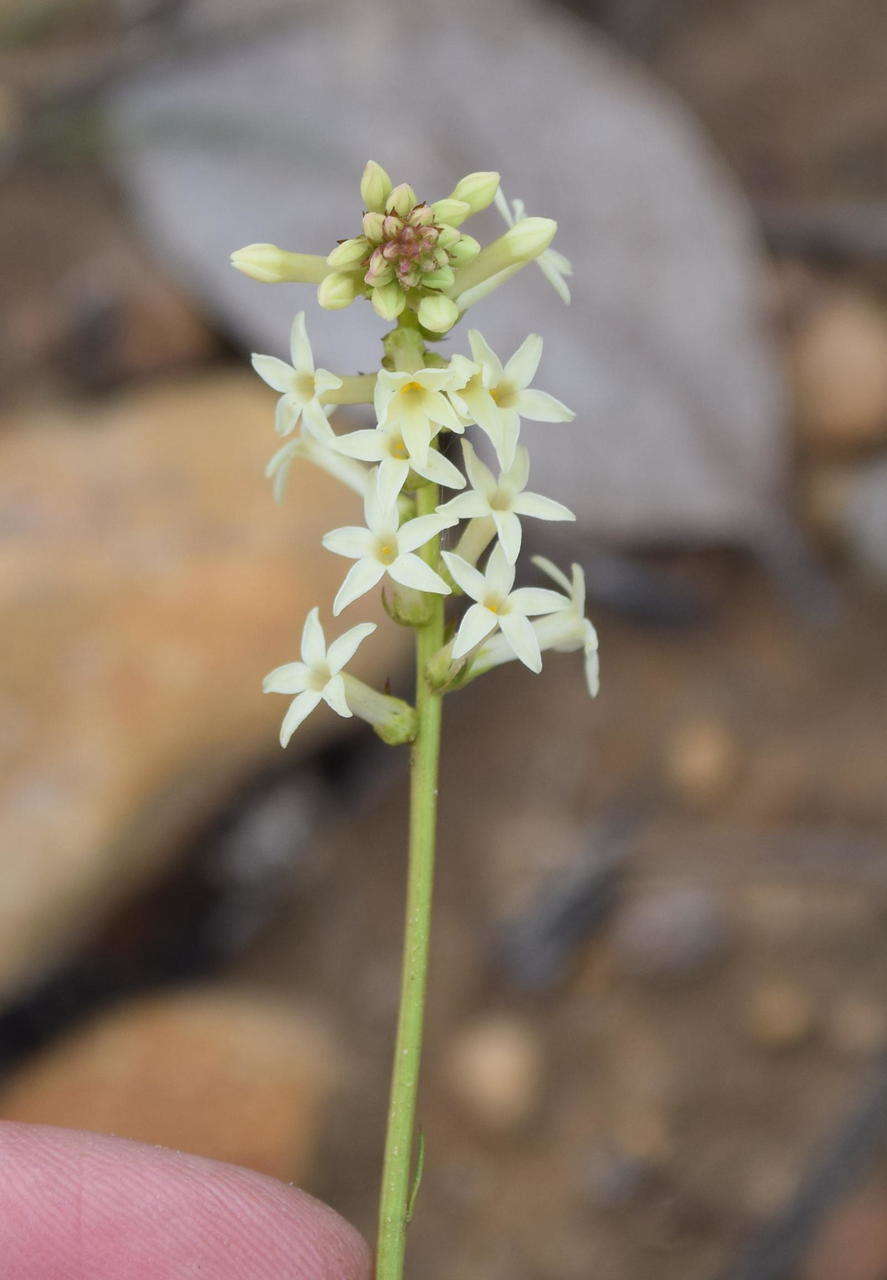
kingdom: Plantae
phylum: Tracheophyta
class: Magnoliopsida
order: Celastrales
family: Celastraceae
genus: Stackhousia
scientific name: Stackhousia monogyna
